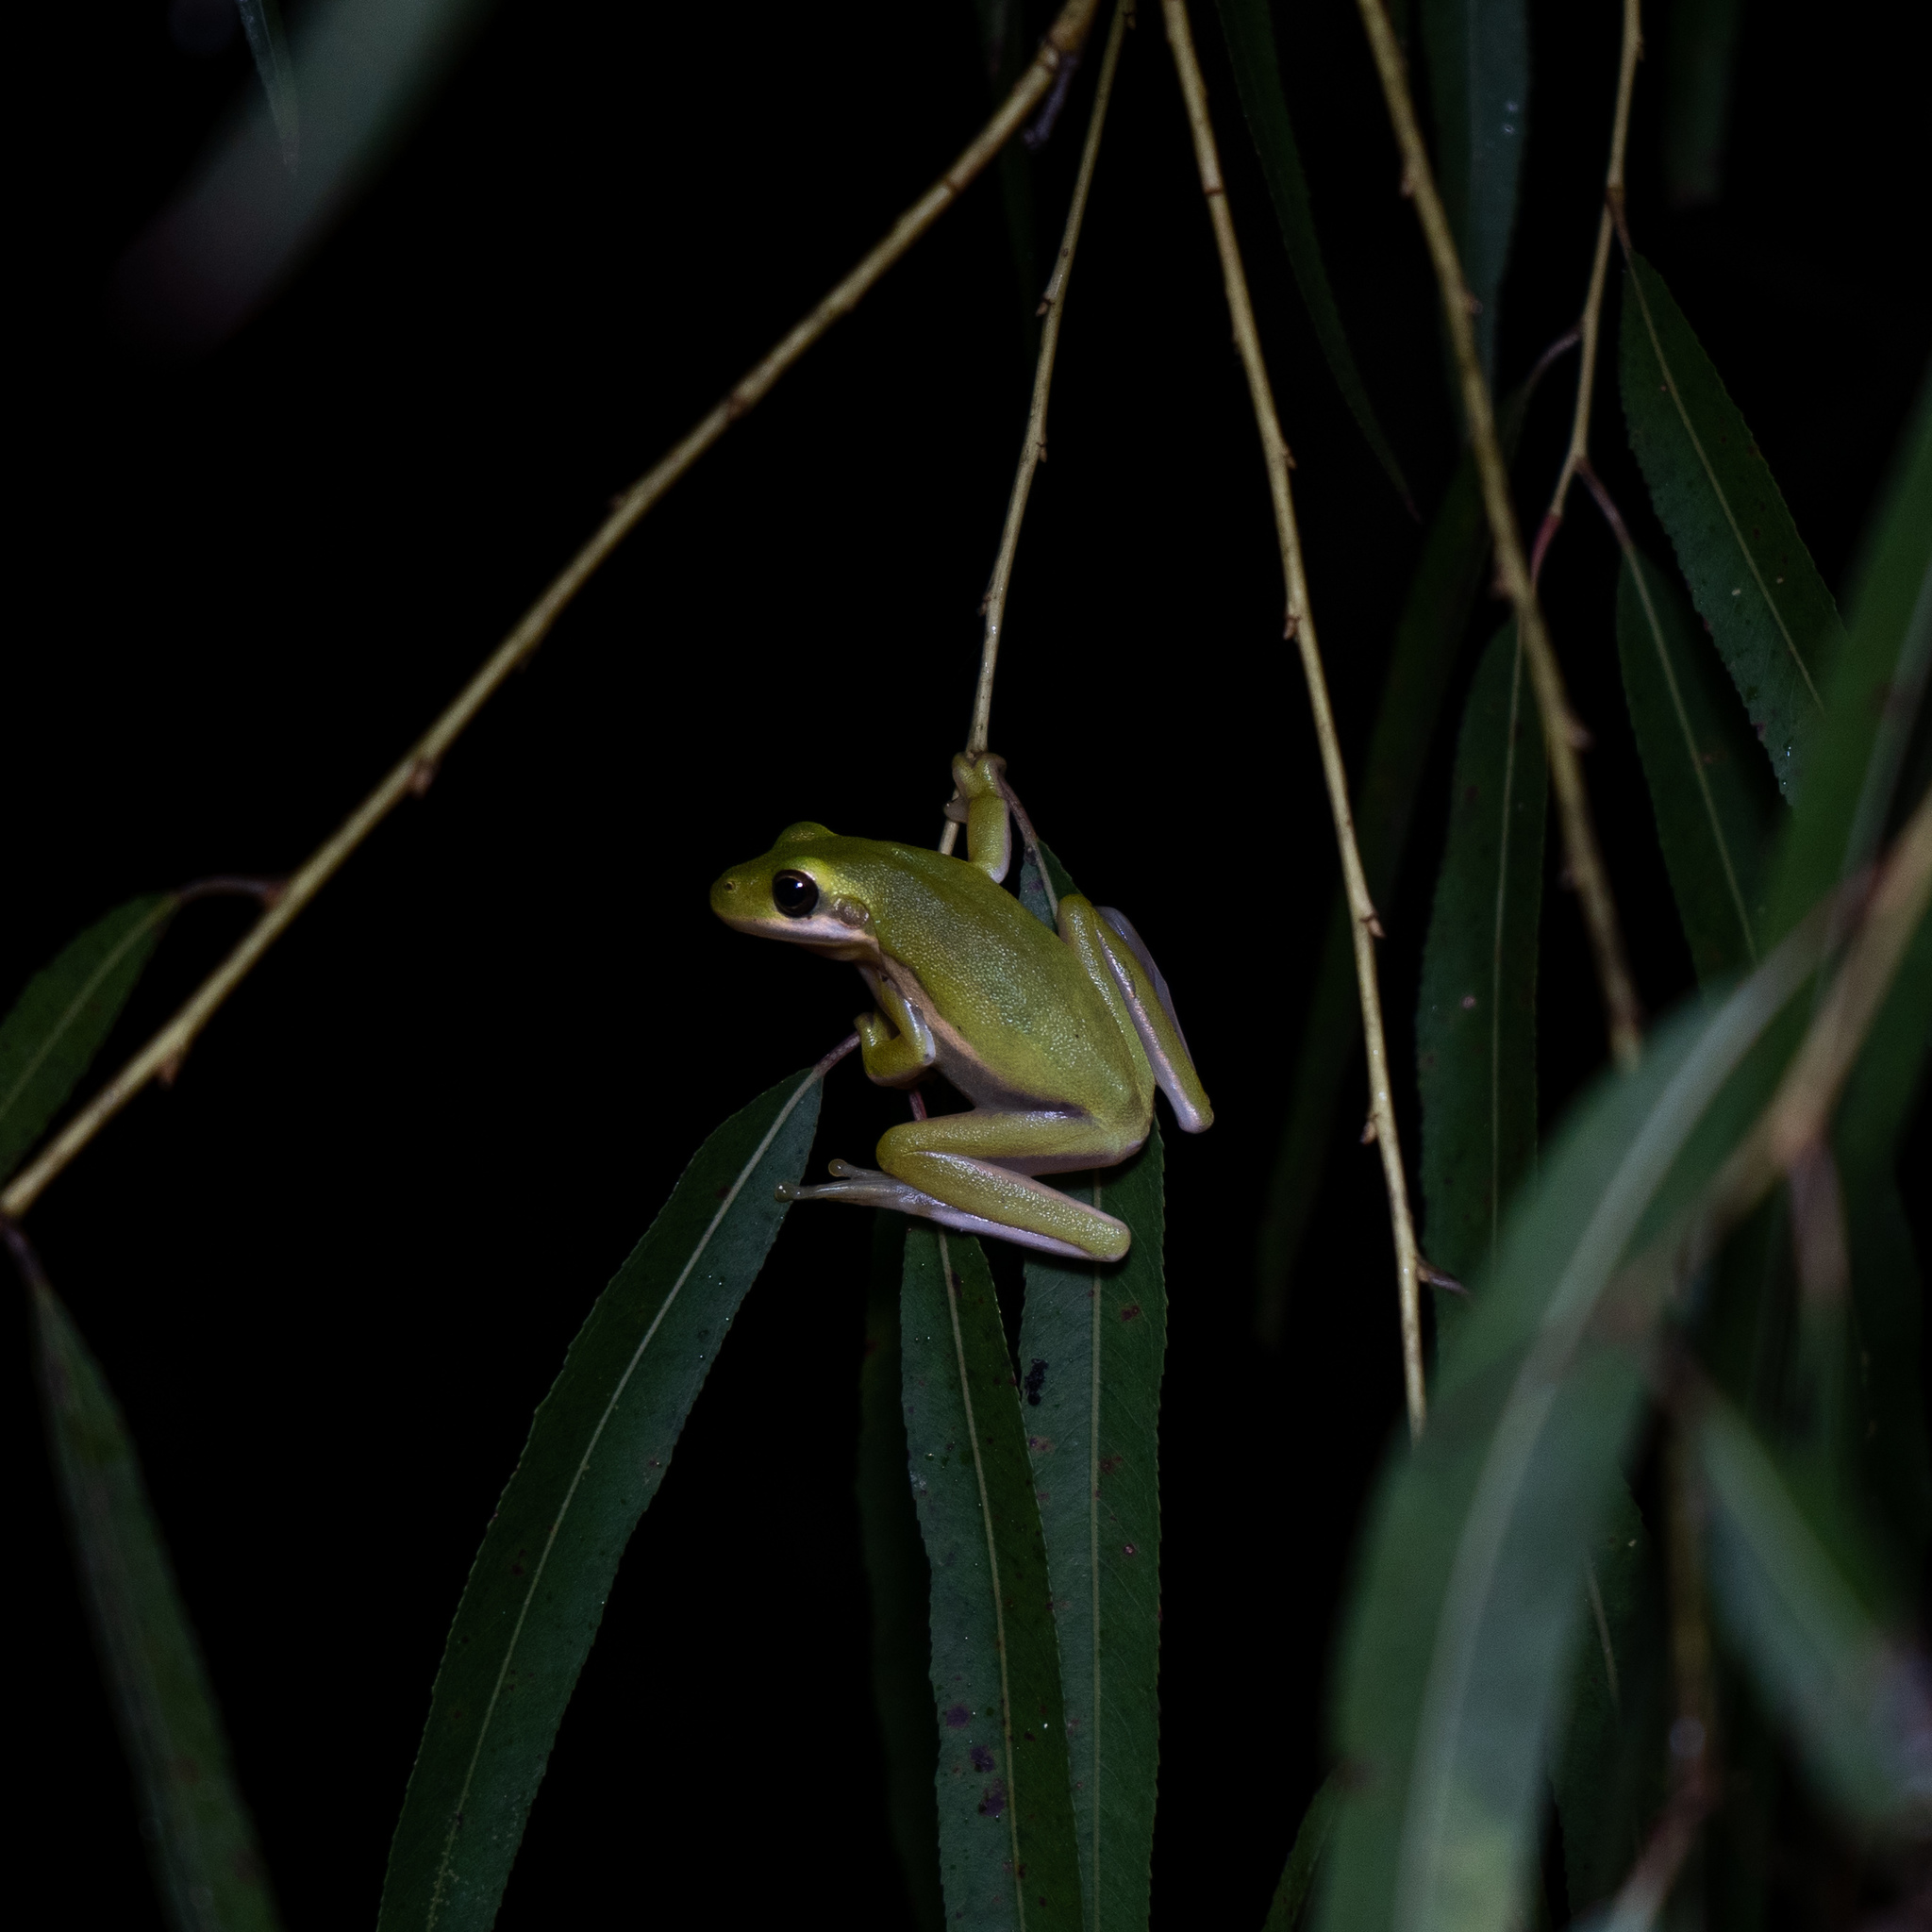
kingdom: Animalia
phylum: Chordata
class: Amphibia
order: Anura
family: Hylidae
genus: Dryophytes
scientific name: Dryophytes cinereus
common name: Green treefrog
